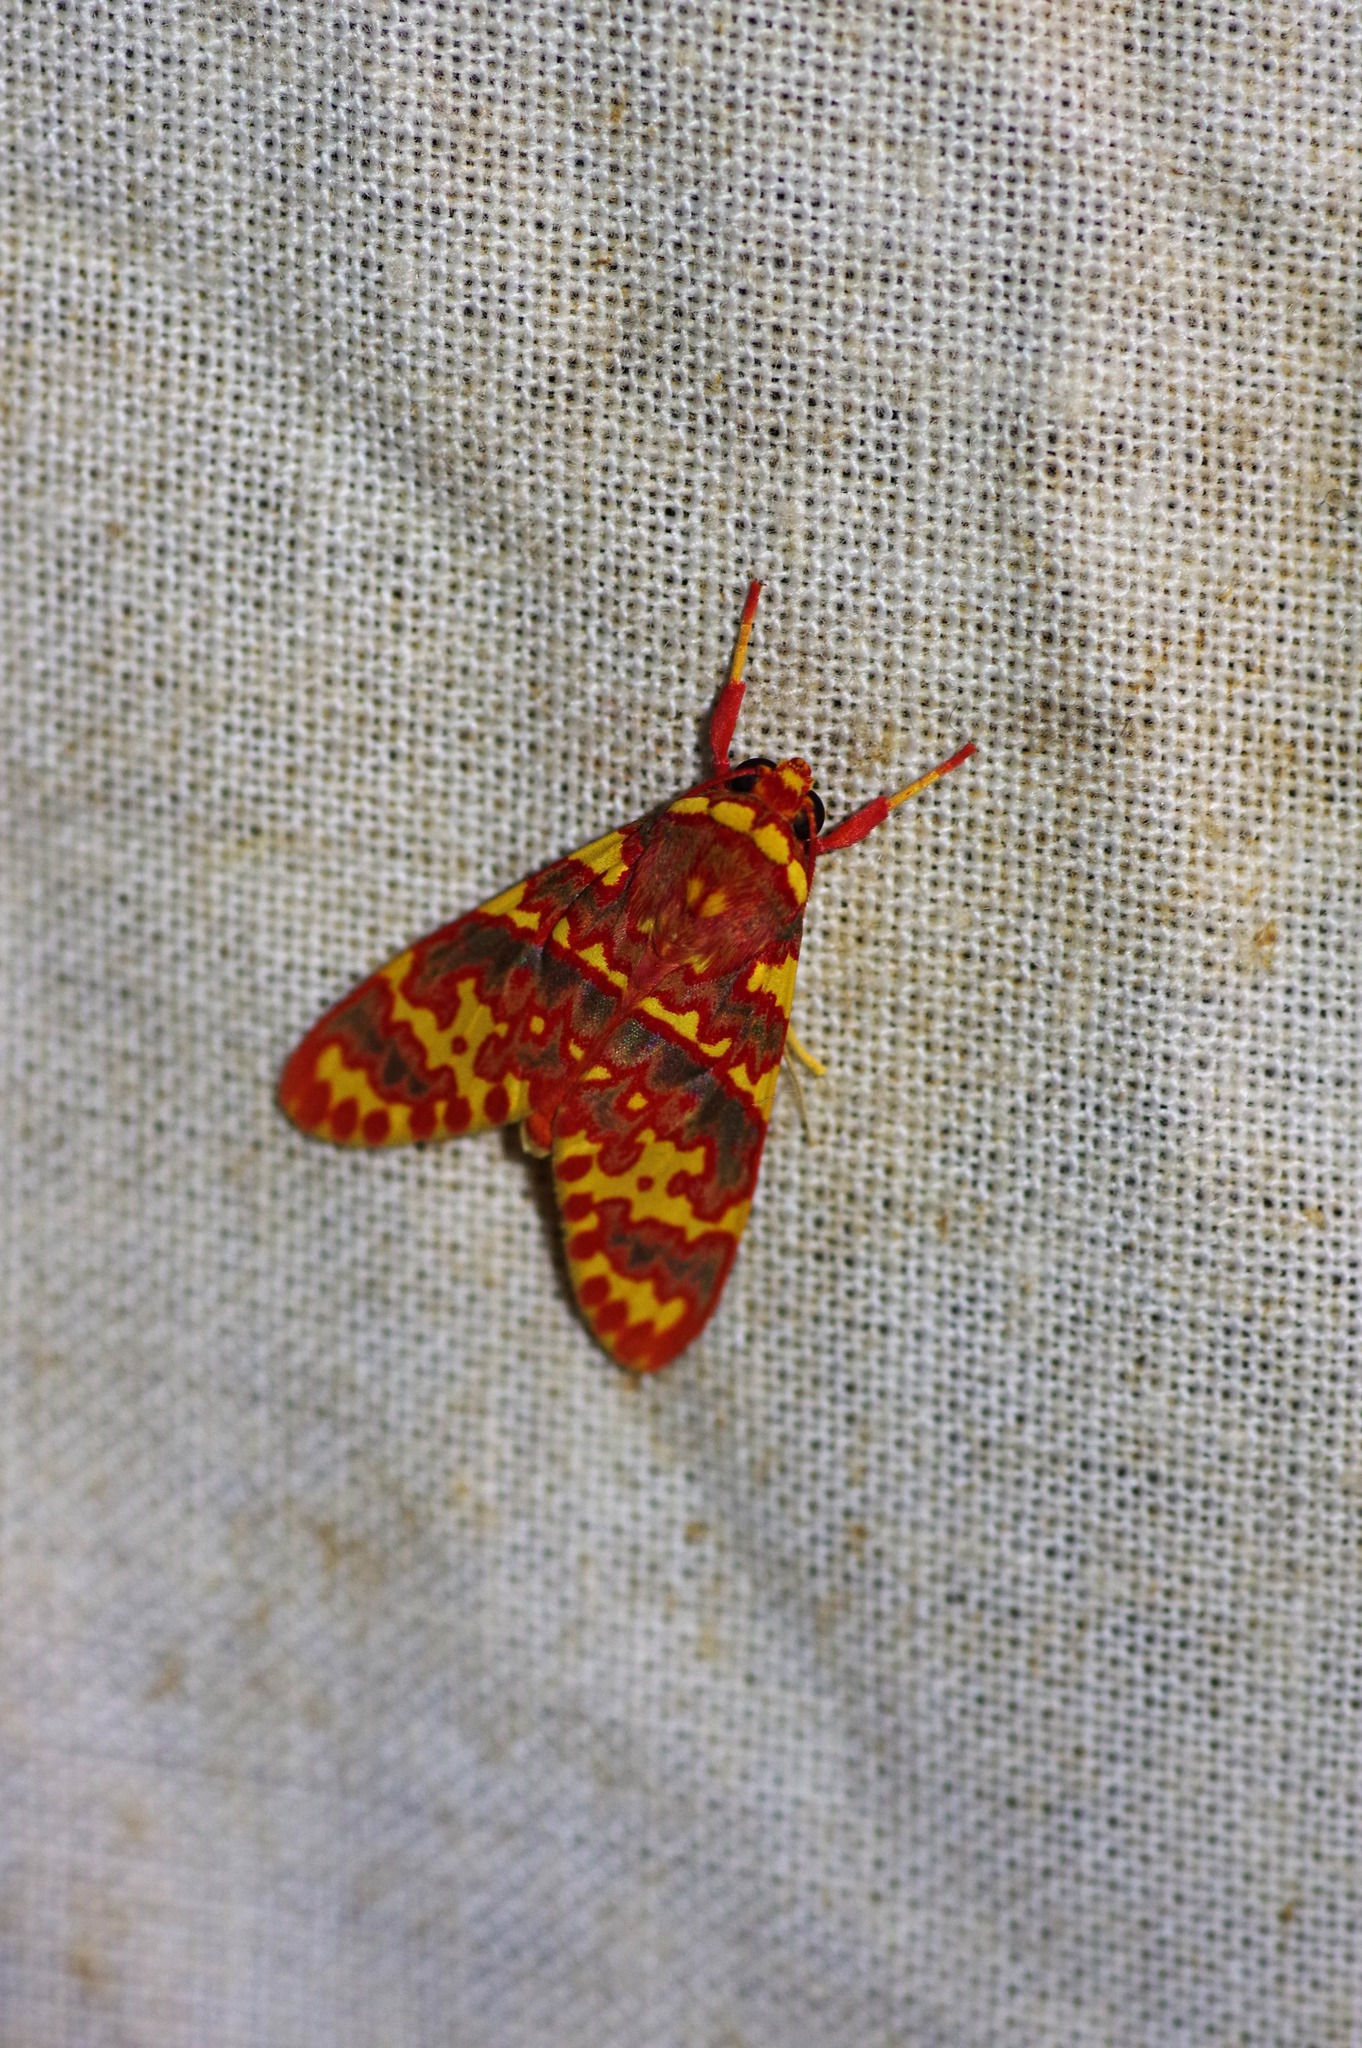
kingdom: Animalia
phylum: Arthropoda
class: Insecta
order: Lepidoptera
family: Erebidae
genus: Hyponerita
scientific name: Hyponerita similis
